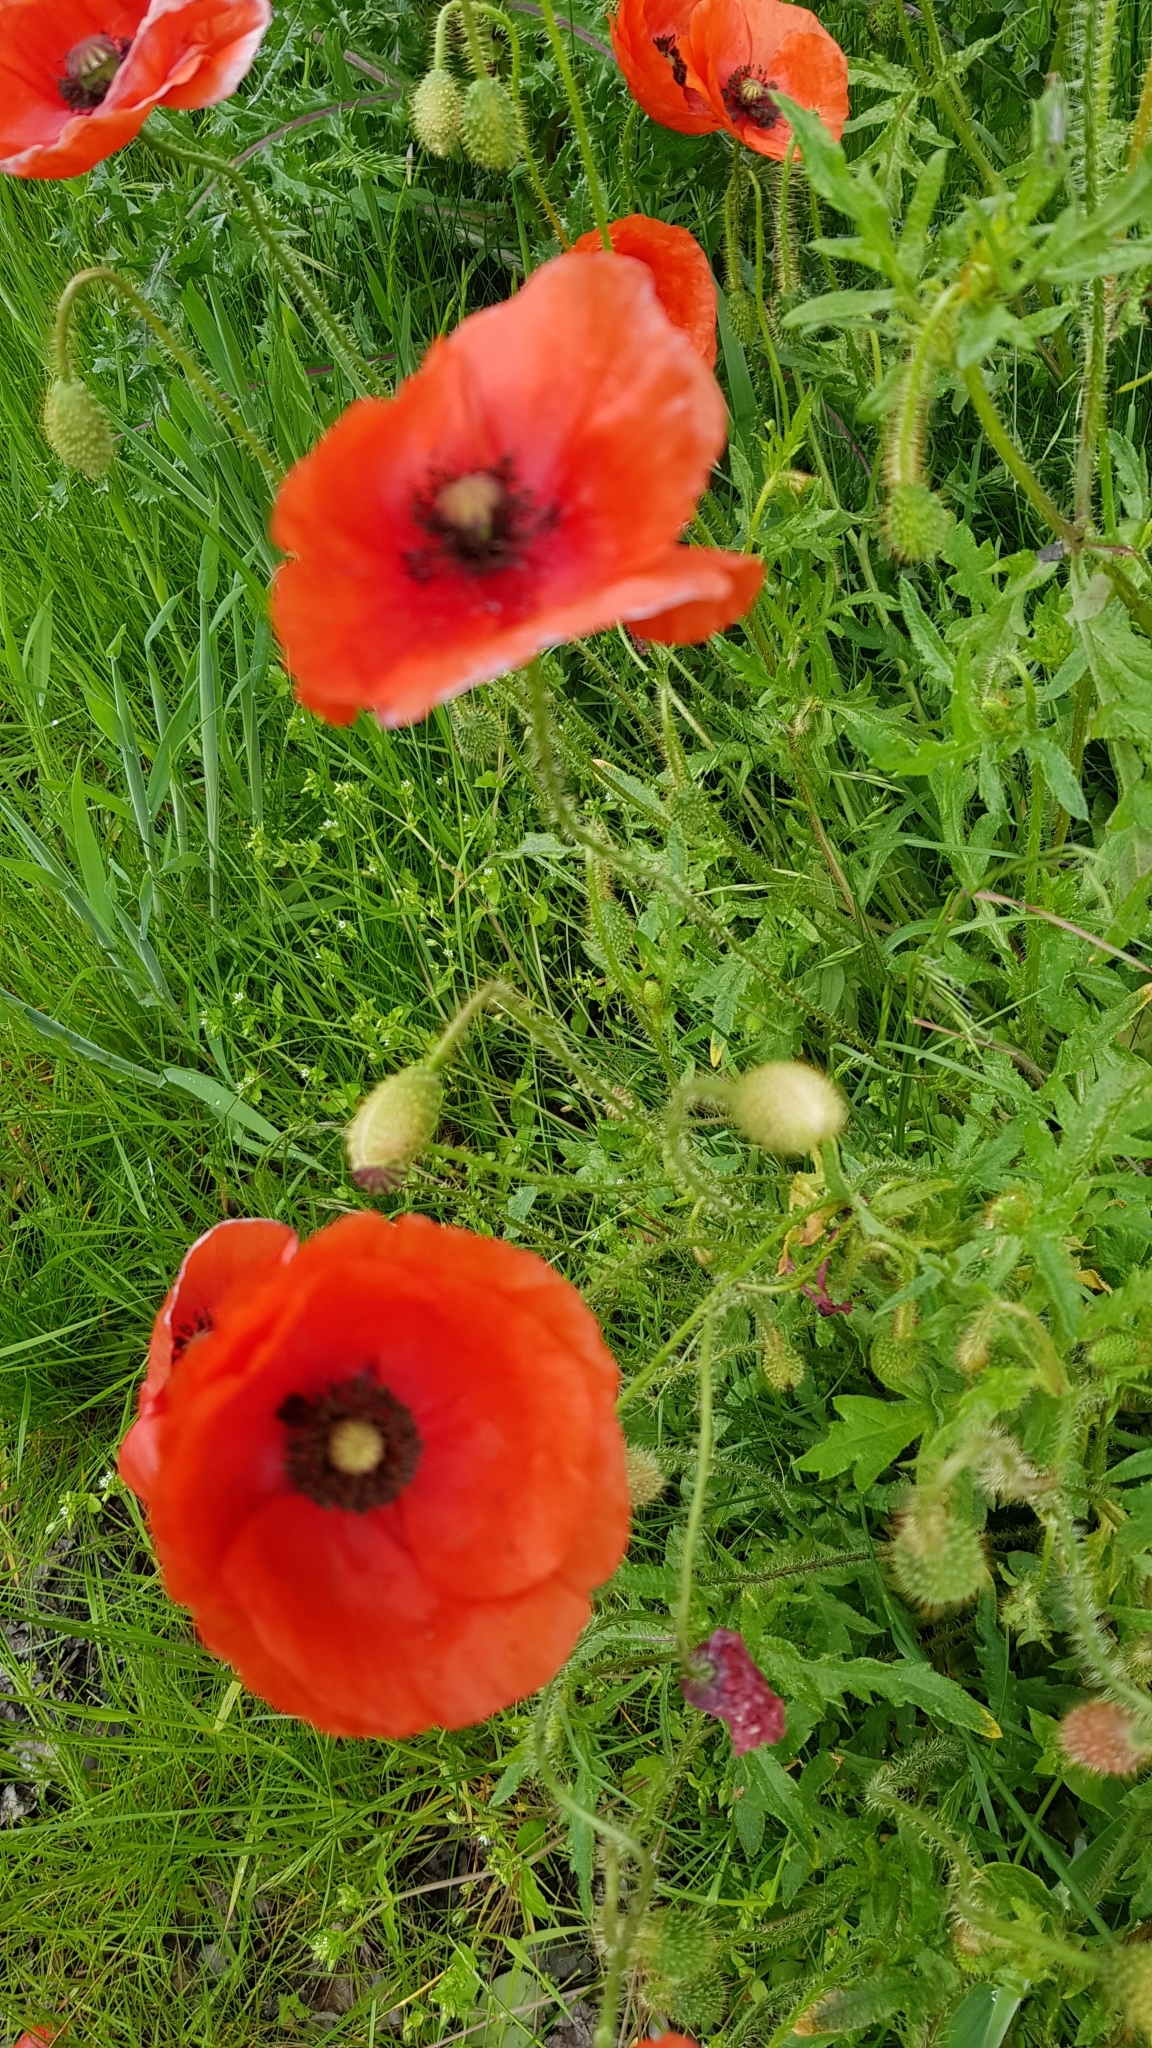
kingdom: Plantae
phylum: Tracheophyta
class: Magnoliopsida
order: Ranunculales
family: Papaveraceae
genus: Papaver
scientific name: Papaver rhoeas
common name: Corn poppy
